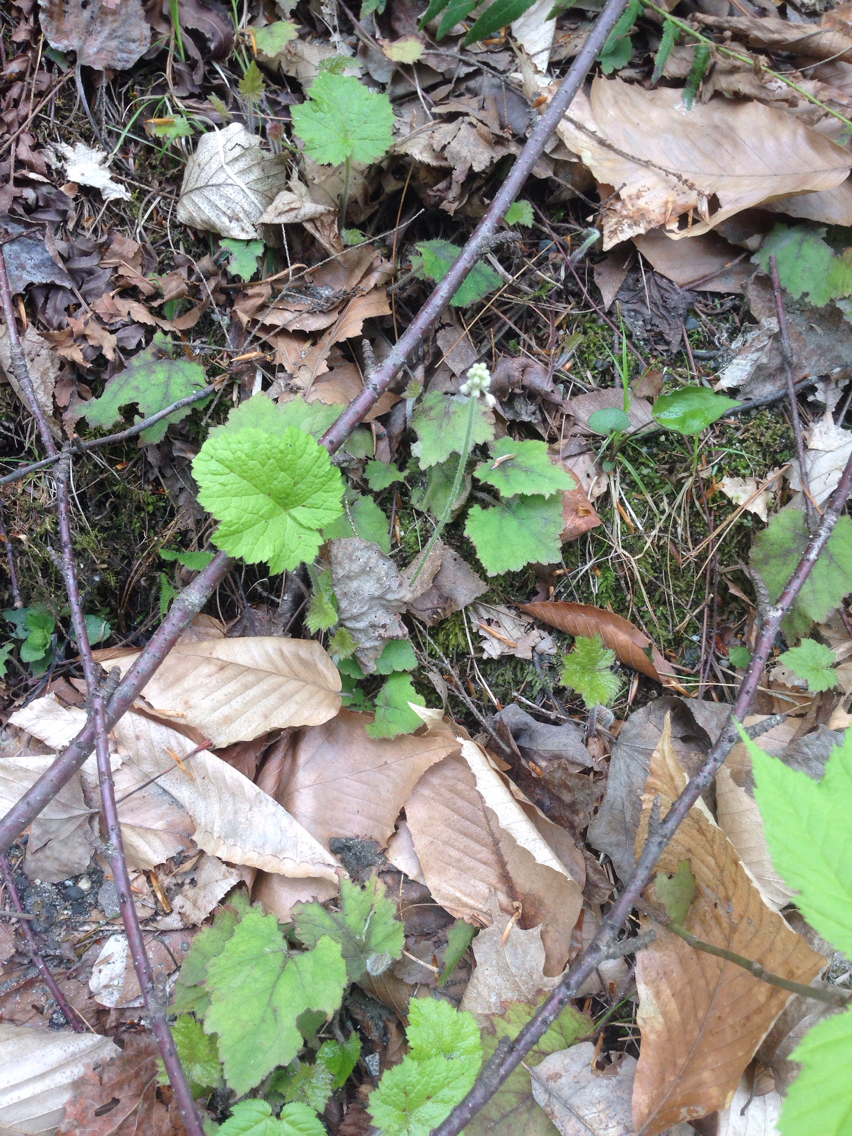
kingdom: Plantae
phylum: Tracheophyta
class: Magnoliopsida
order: Saxifragales
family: Saxifragaceae
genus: Tiarella
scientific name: Tiarella stolonifera
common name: Stoloniferous foamflower
